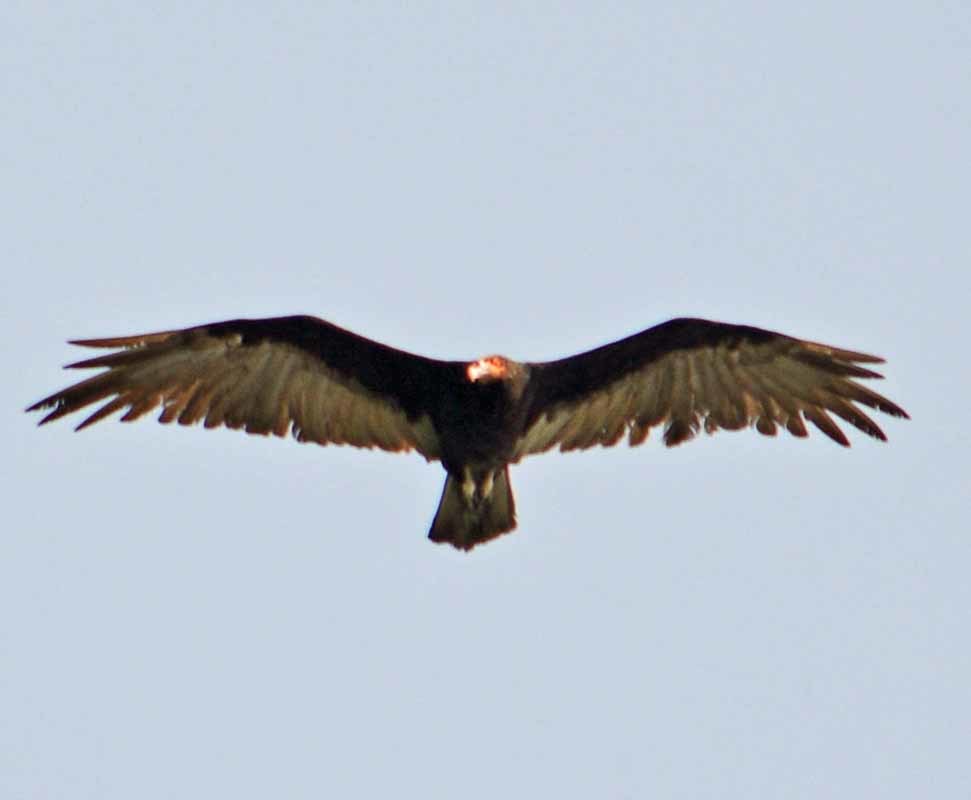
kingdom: Animalia
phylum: Chordata
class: Aves
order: Accipitriformes
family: Cathartidae
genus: Cathartes
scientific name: Cathartes burrovianus
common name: Lesser yellow-headed vulture
